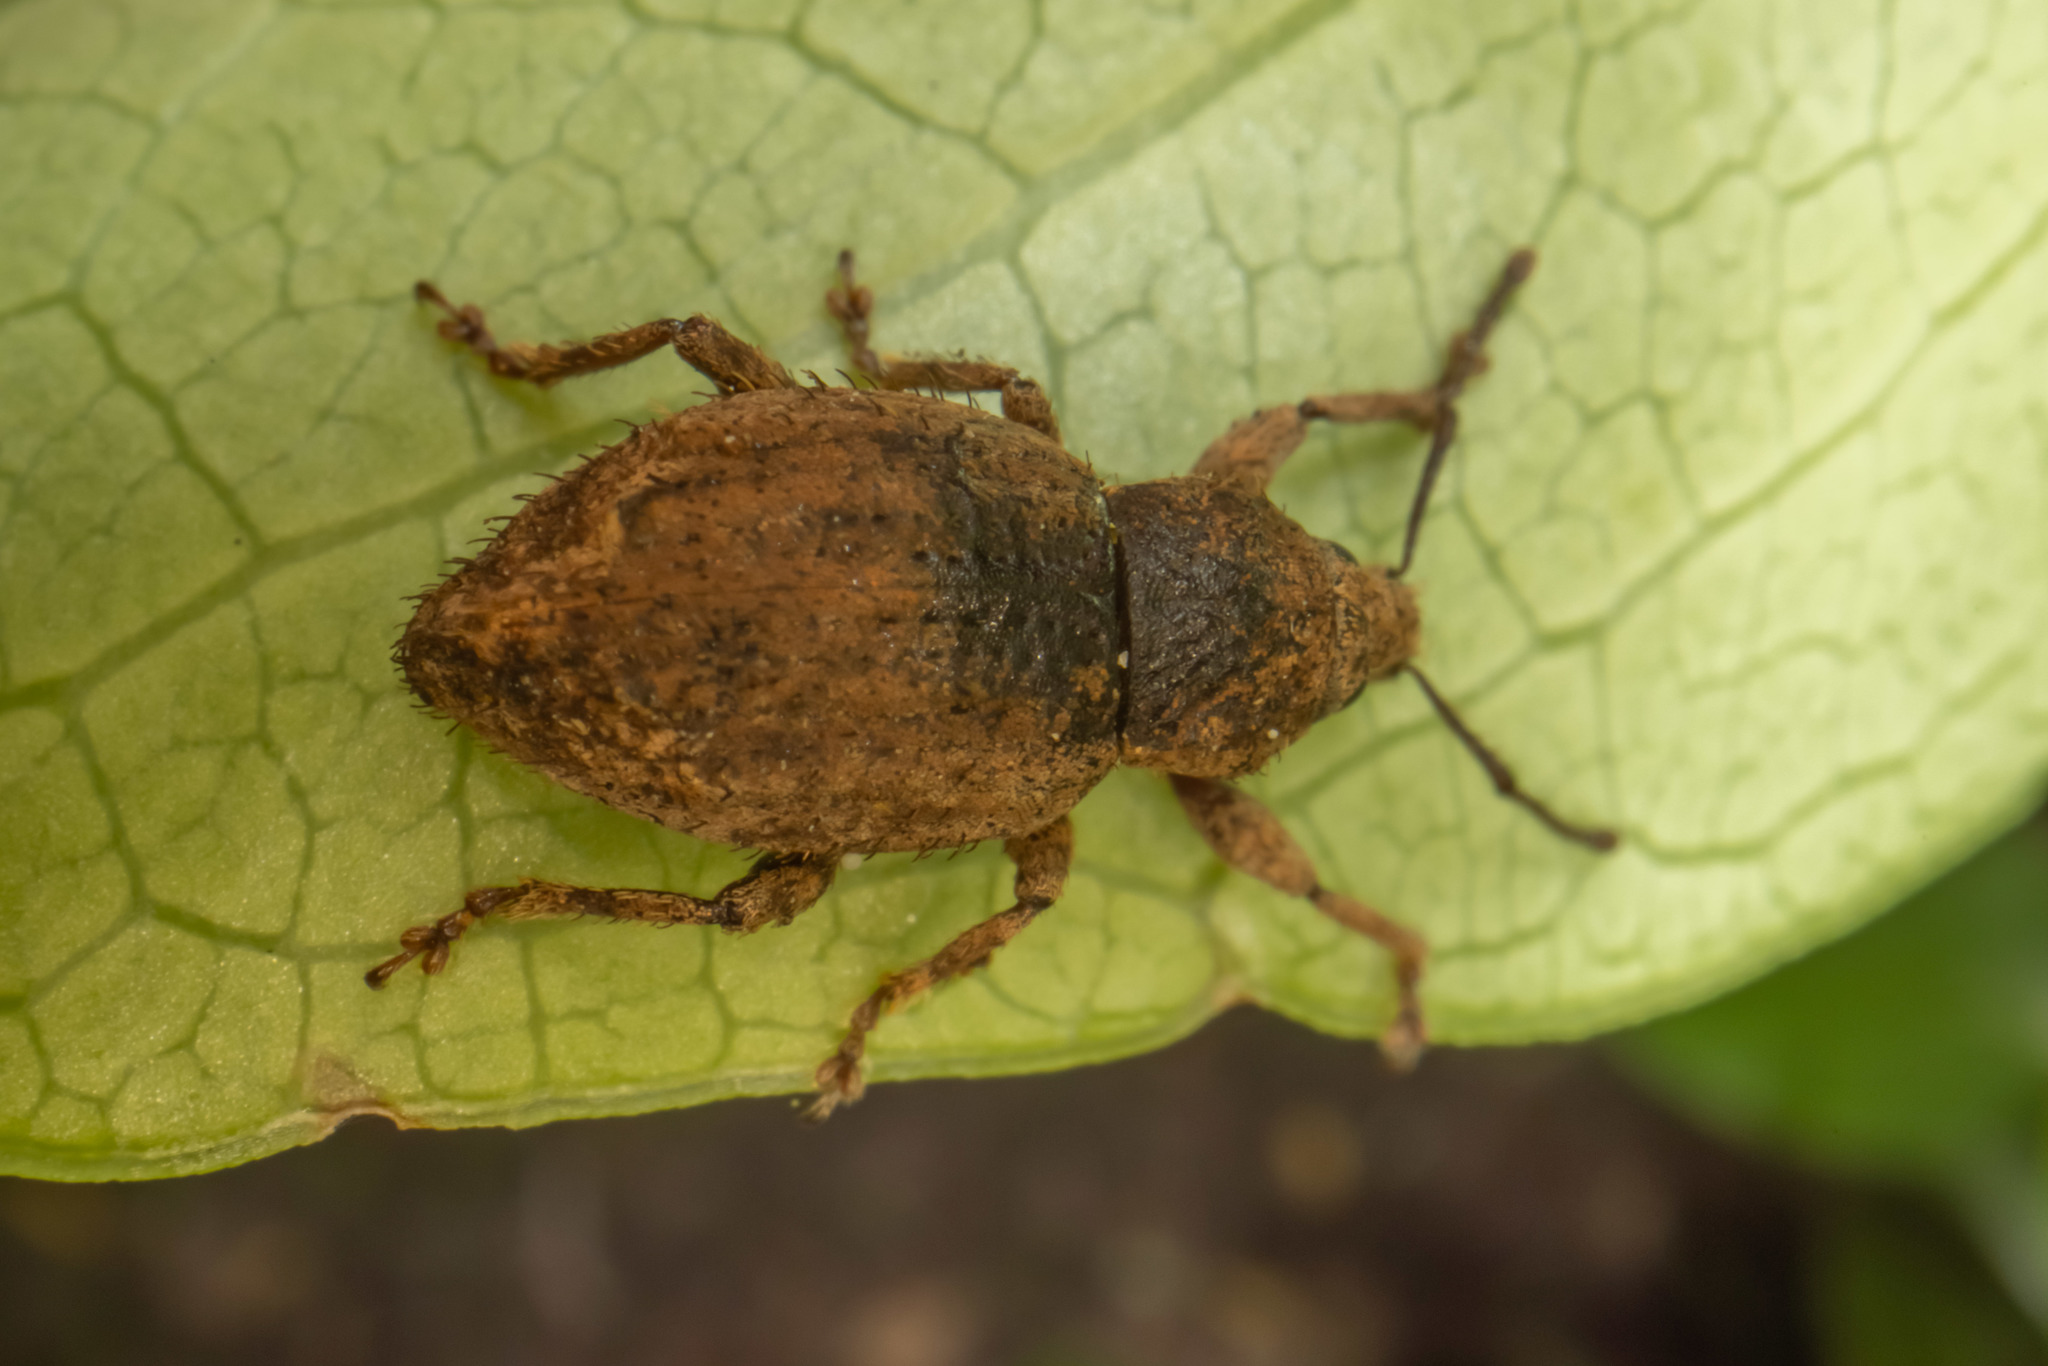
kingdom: Animalia
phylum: Arthropoda
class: Insecta
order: Coleoptera
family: Curculionidae
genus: Chalepistes
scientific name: Chalepistes compressus
